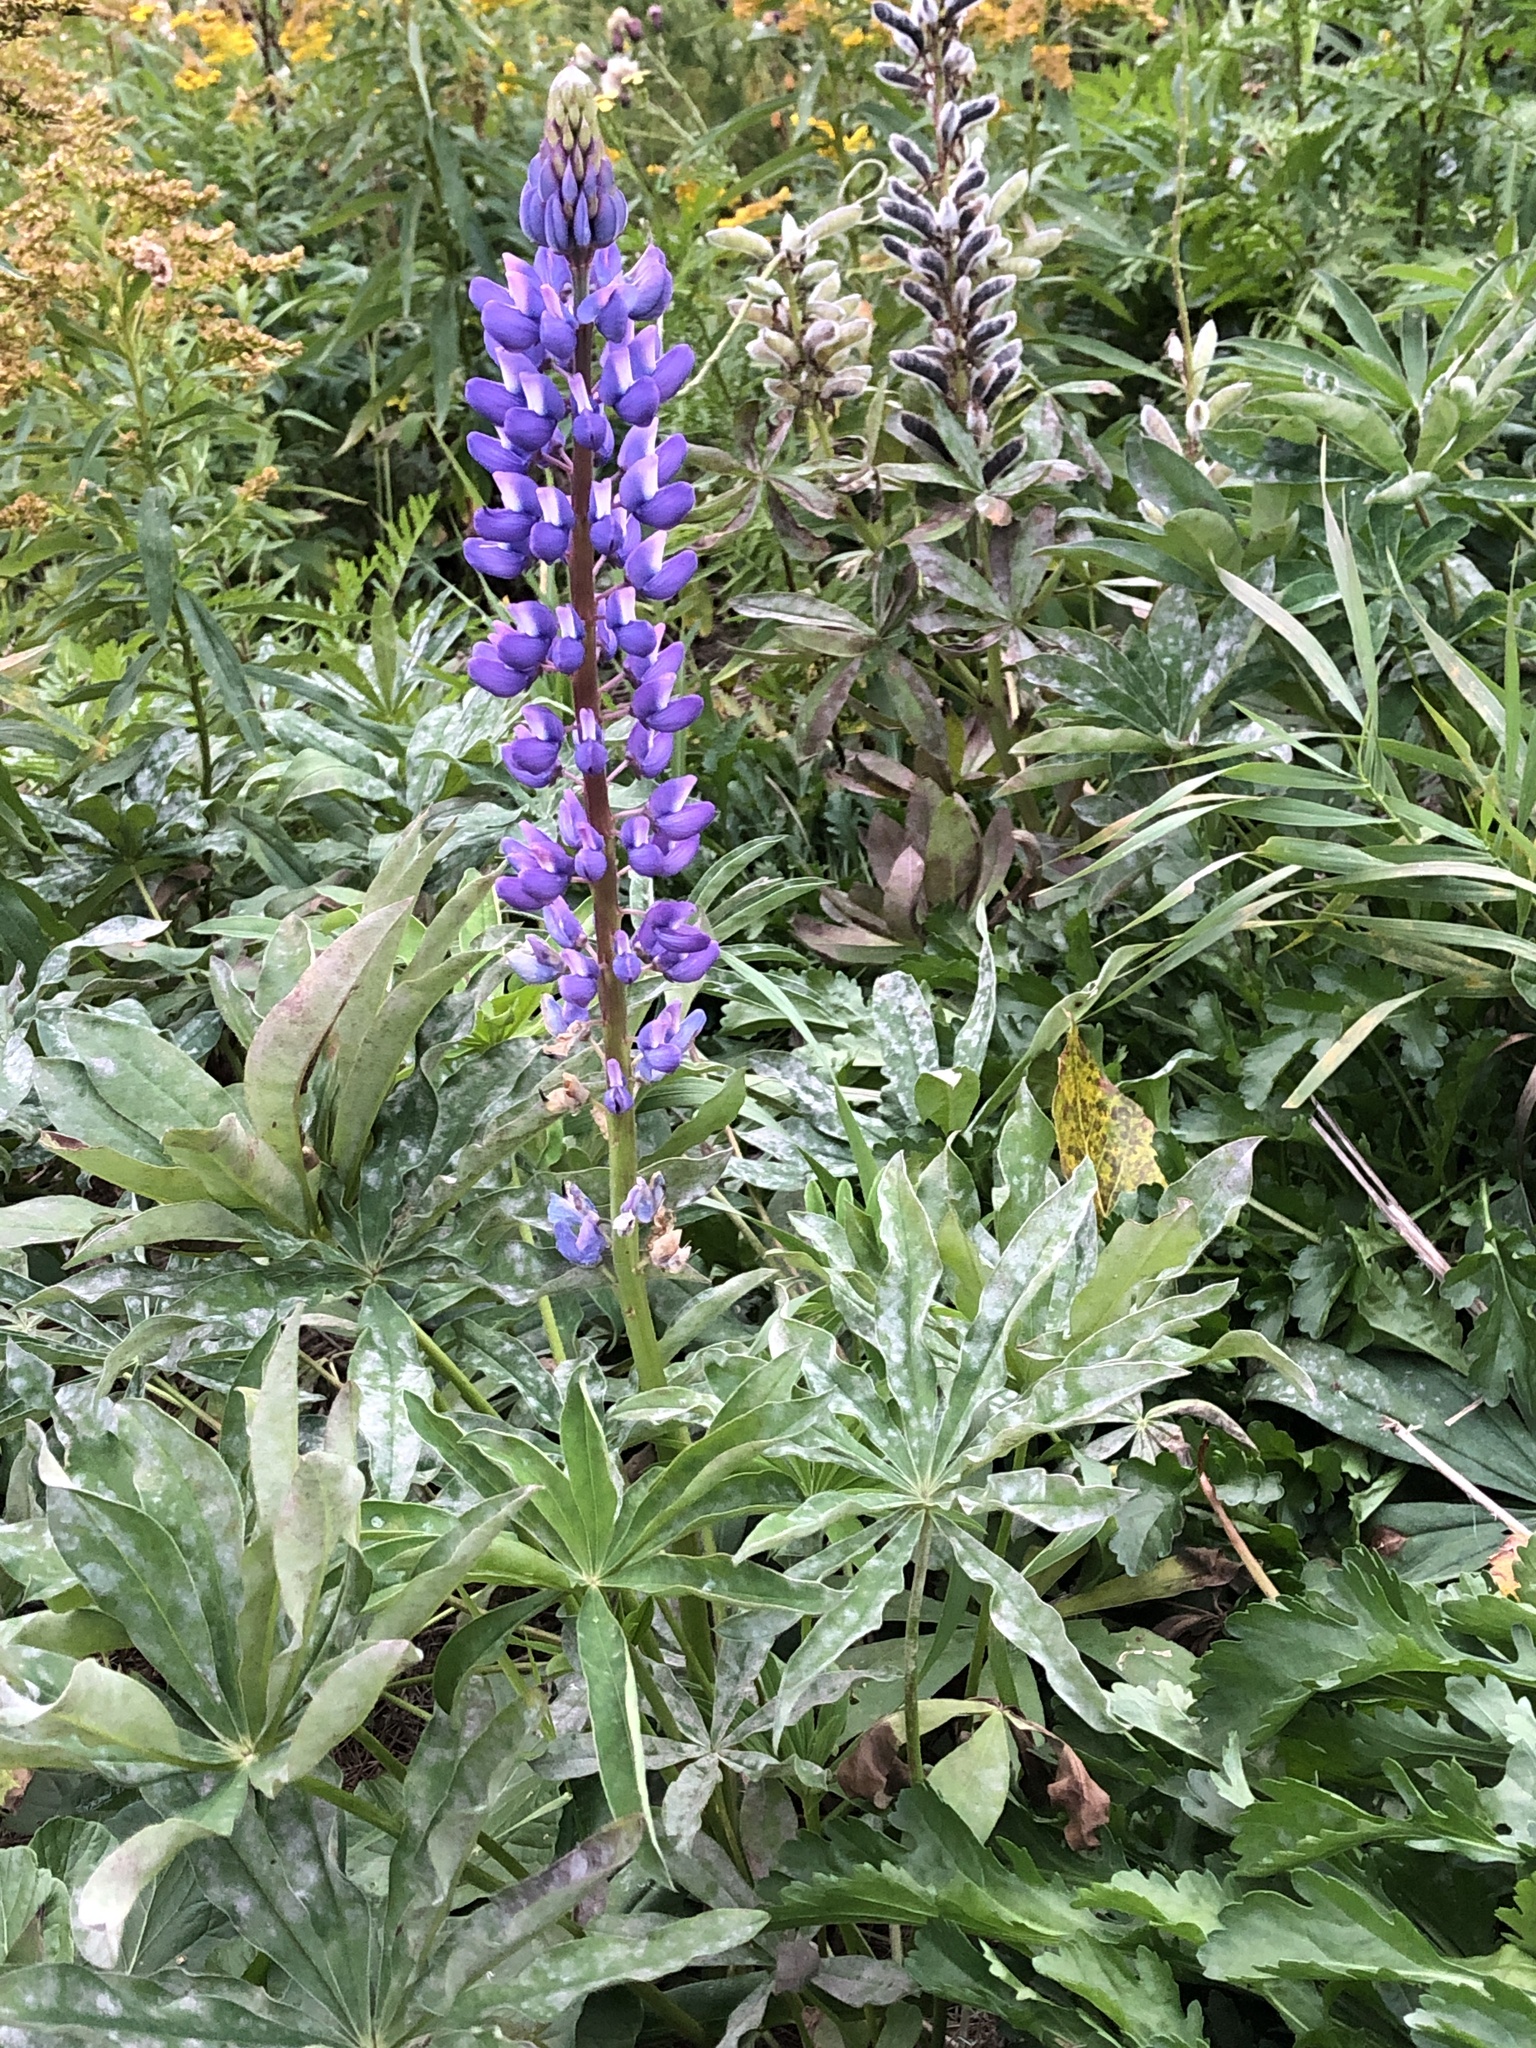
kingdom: Plantae
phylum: Tracheophyta
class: Magnoliopsida
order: Fabales
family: Fabaceae
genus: Lupinus
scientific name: Lupinus polyphyllus
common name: Garden lupin
